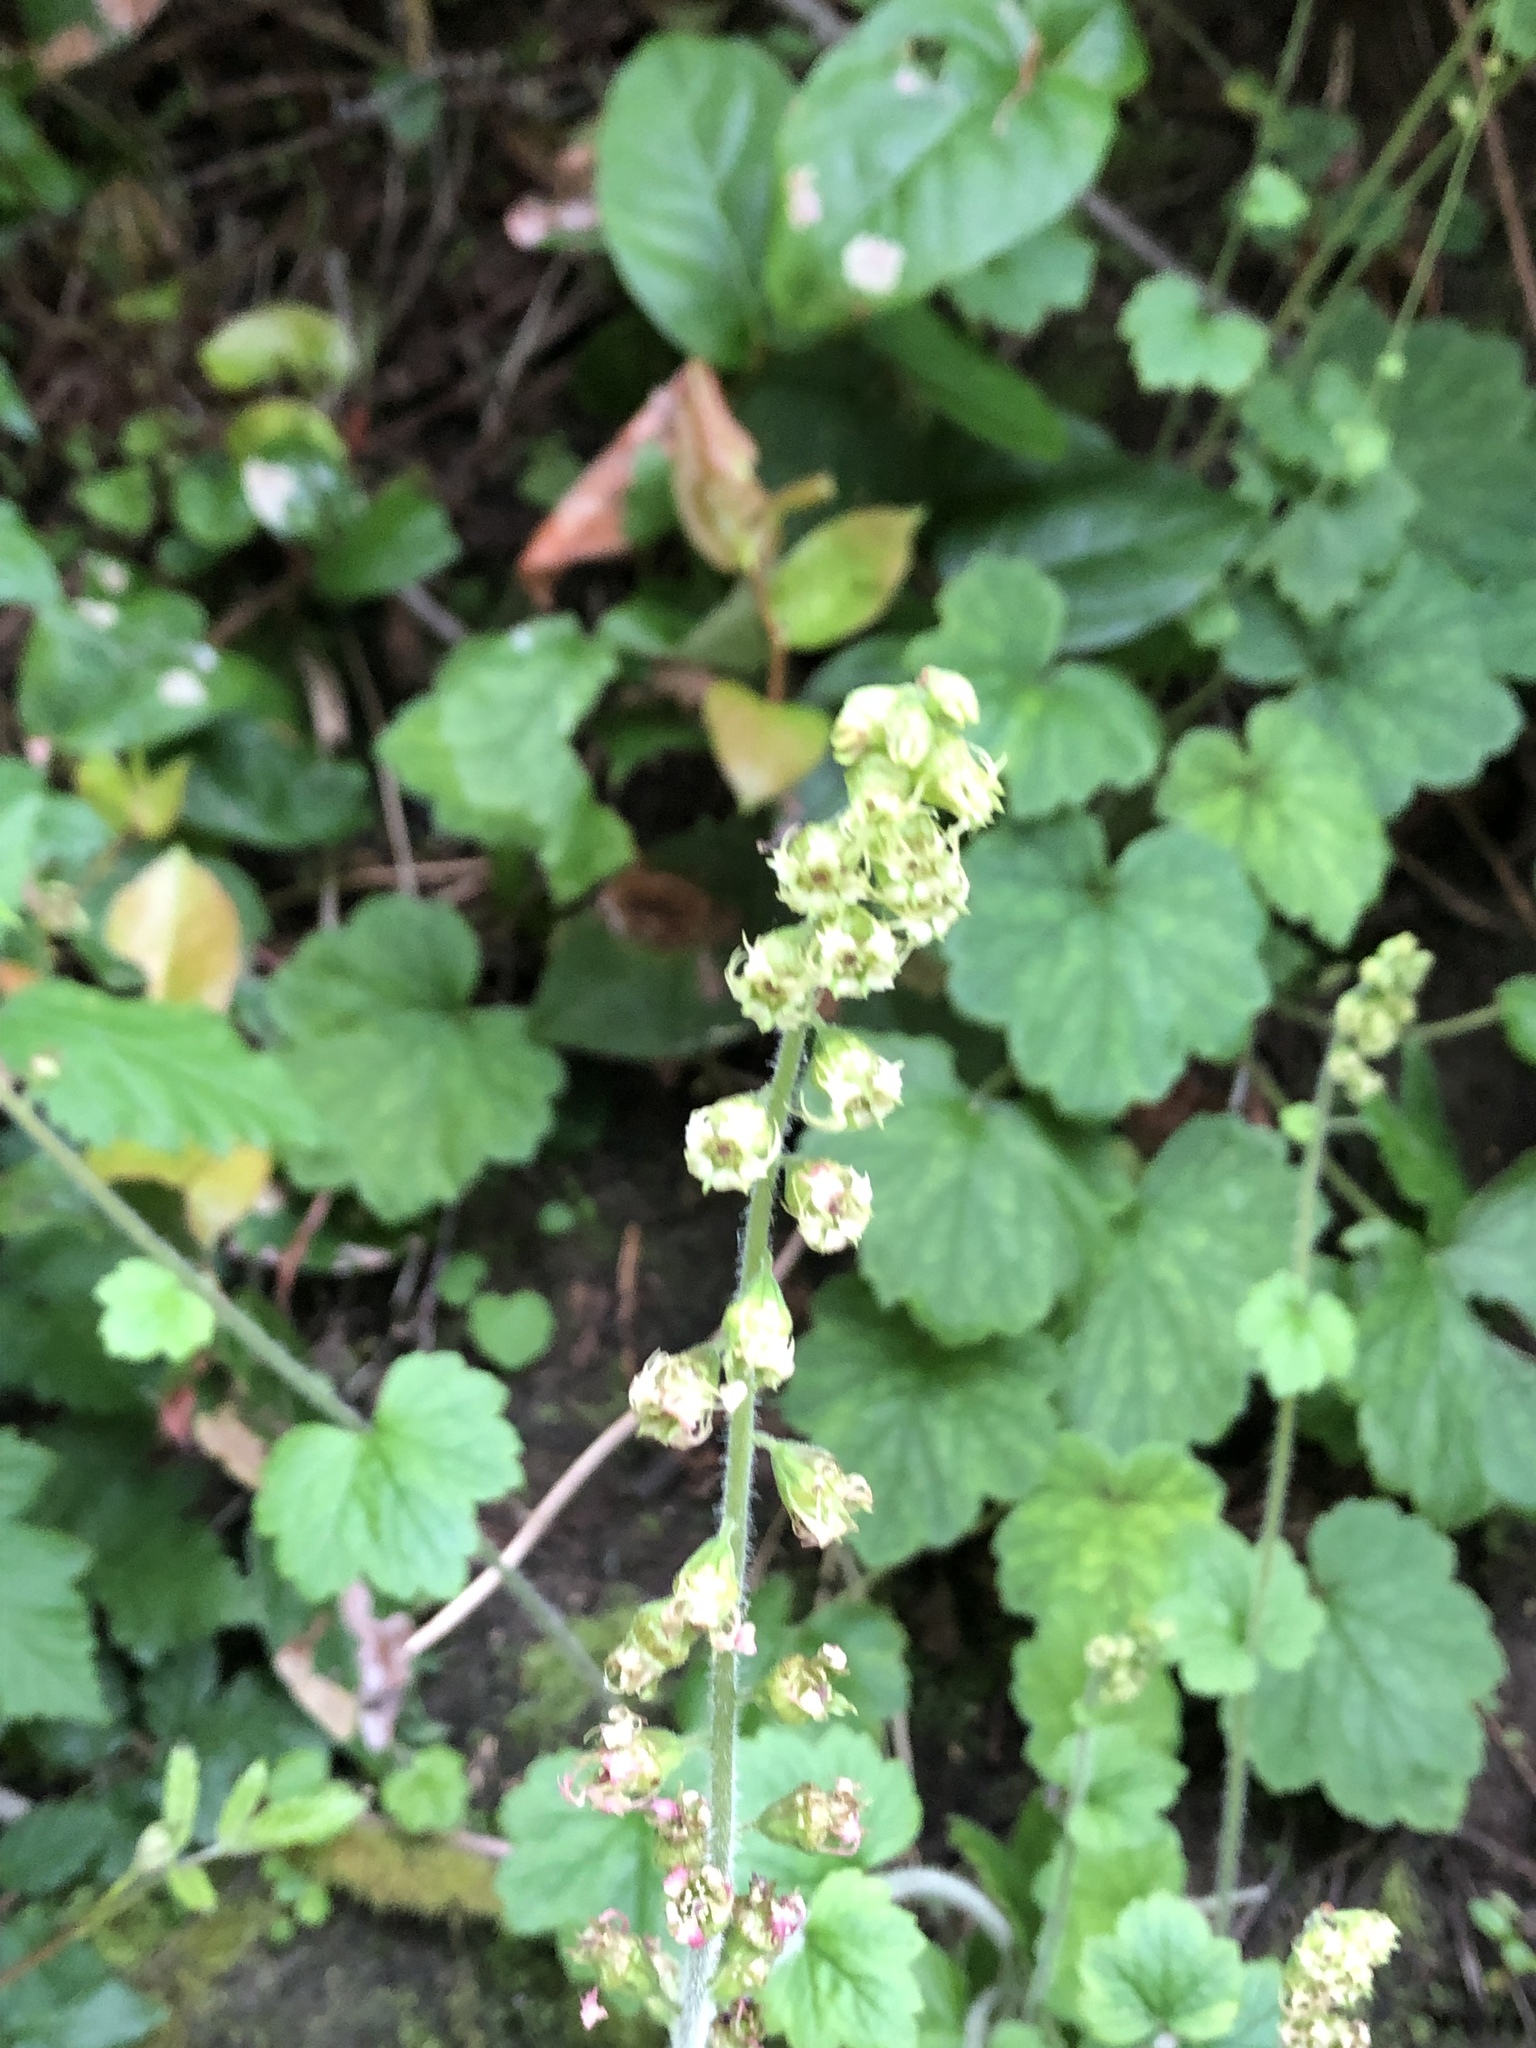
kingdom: Plantae
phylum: Tracheophyta
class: Magnoliopsida
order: Saxifragales
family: Saxifragaceae
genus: Tellima
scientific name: Tellima grandiflora
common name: Fringecups
